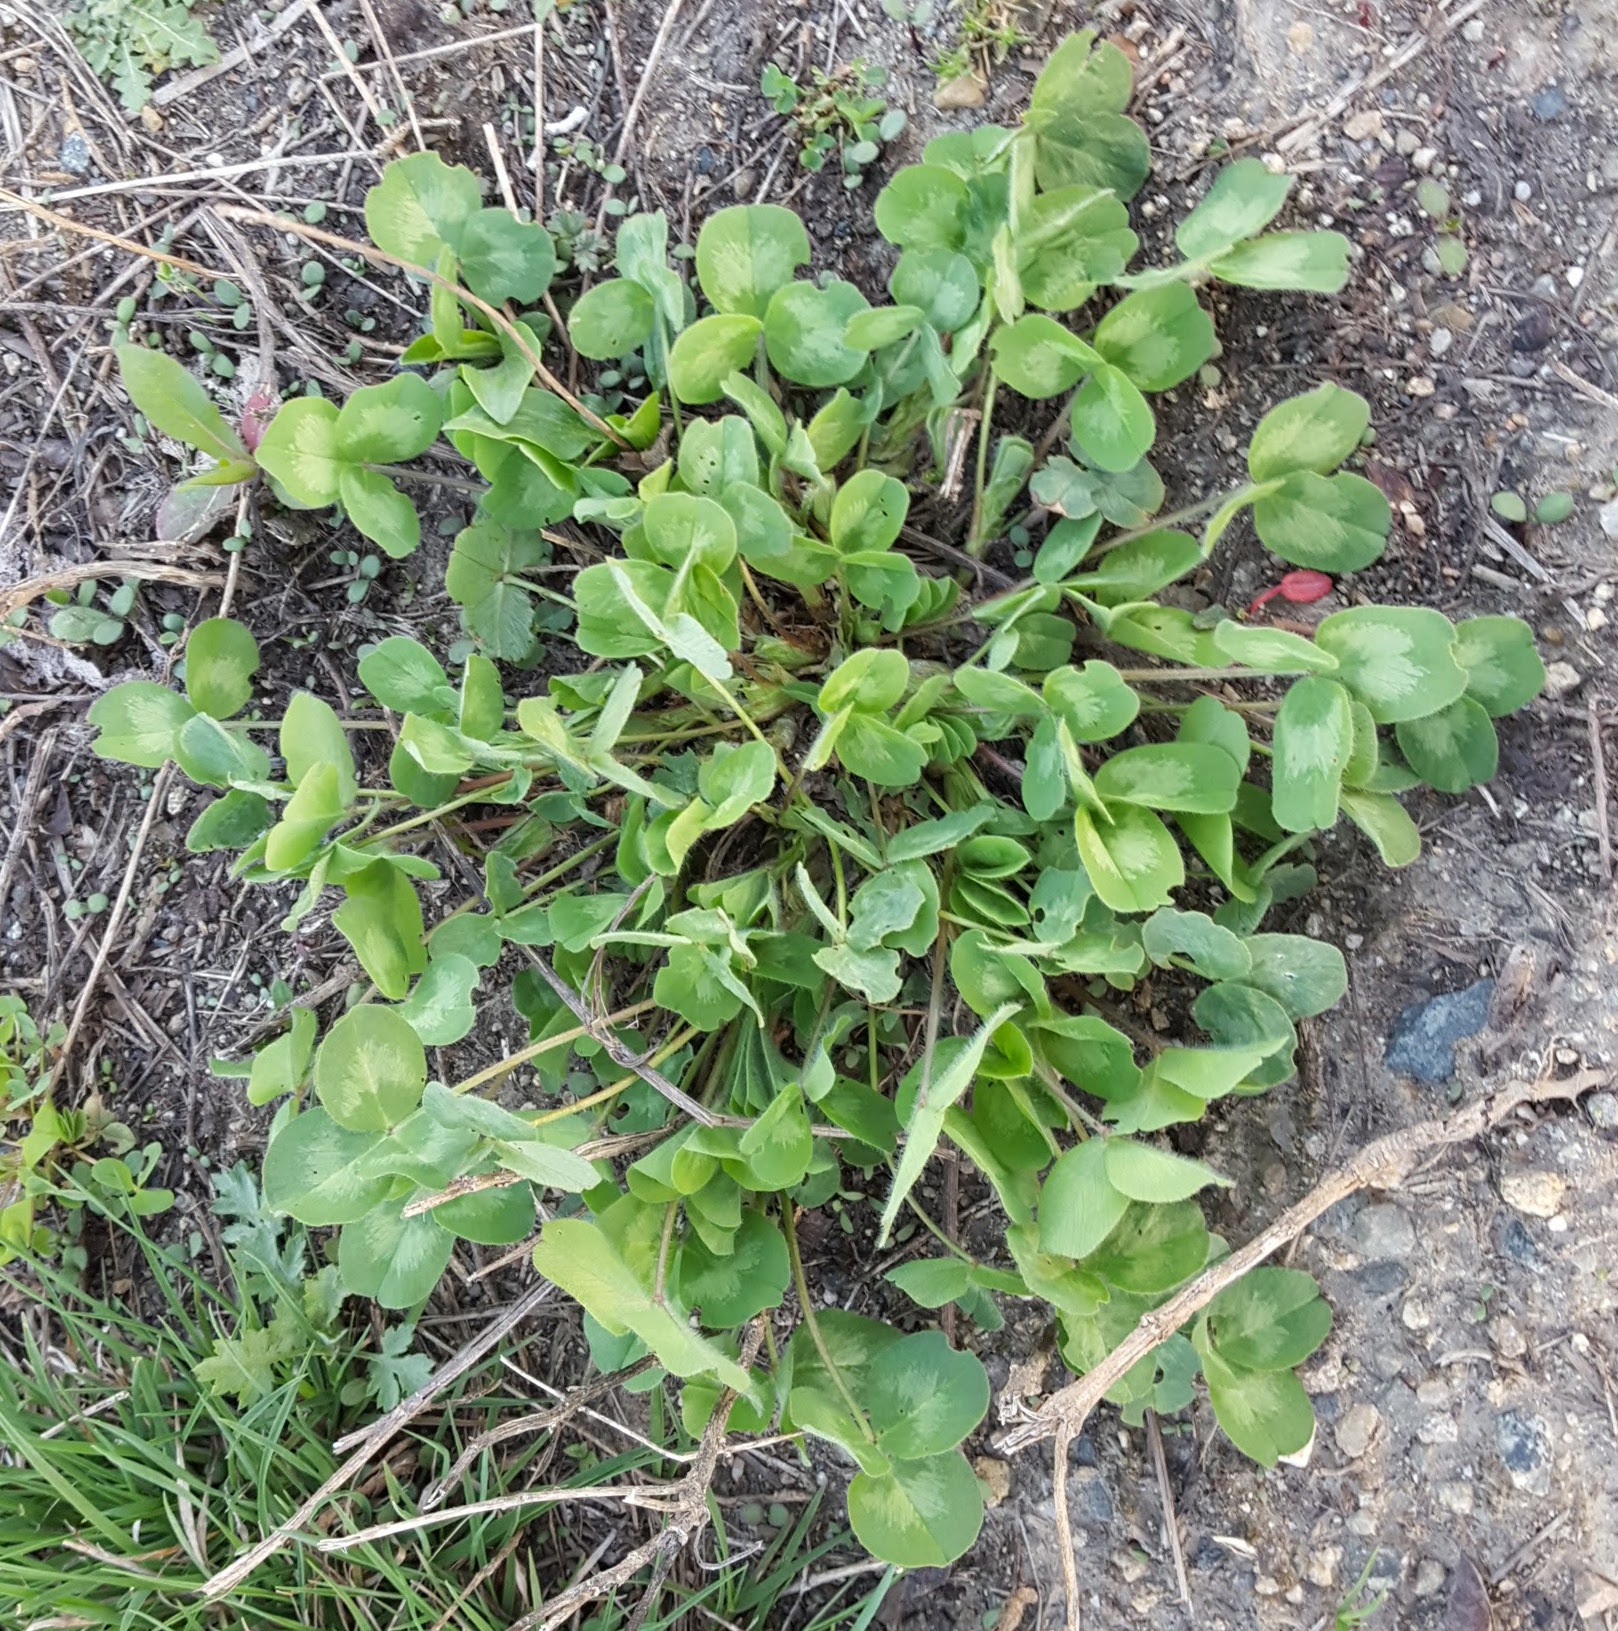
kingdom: Plantae
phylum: Tracheophyta
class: Magnoliopsida
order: Fabales
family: Fabaceae
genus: Trifolium
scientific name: Trifolium pratense
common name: Red clover
